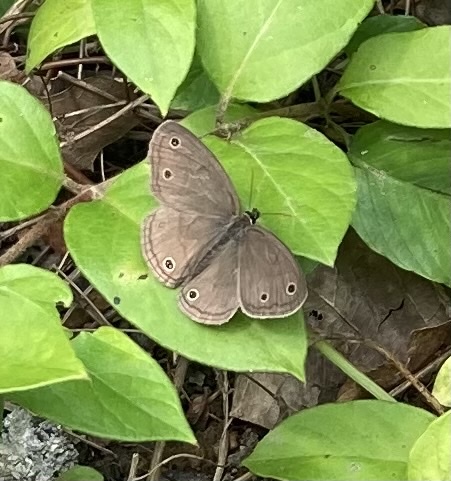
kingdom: Animalia
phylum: Arthropoda
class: Insecta
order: Lepidoptera
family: Nymphalidae
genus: Euptychia
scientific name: Euptychia cymela
